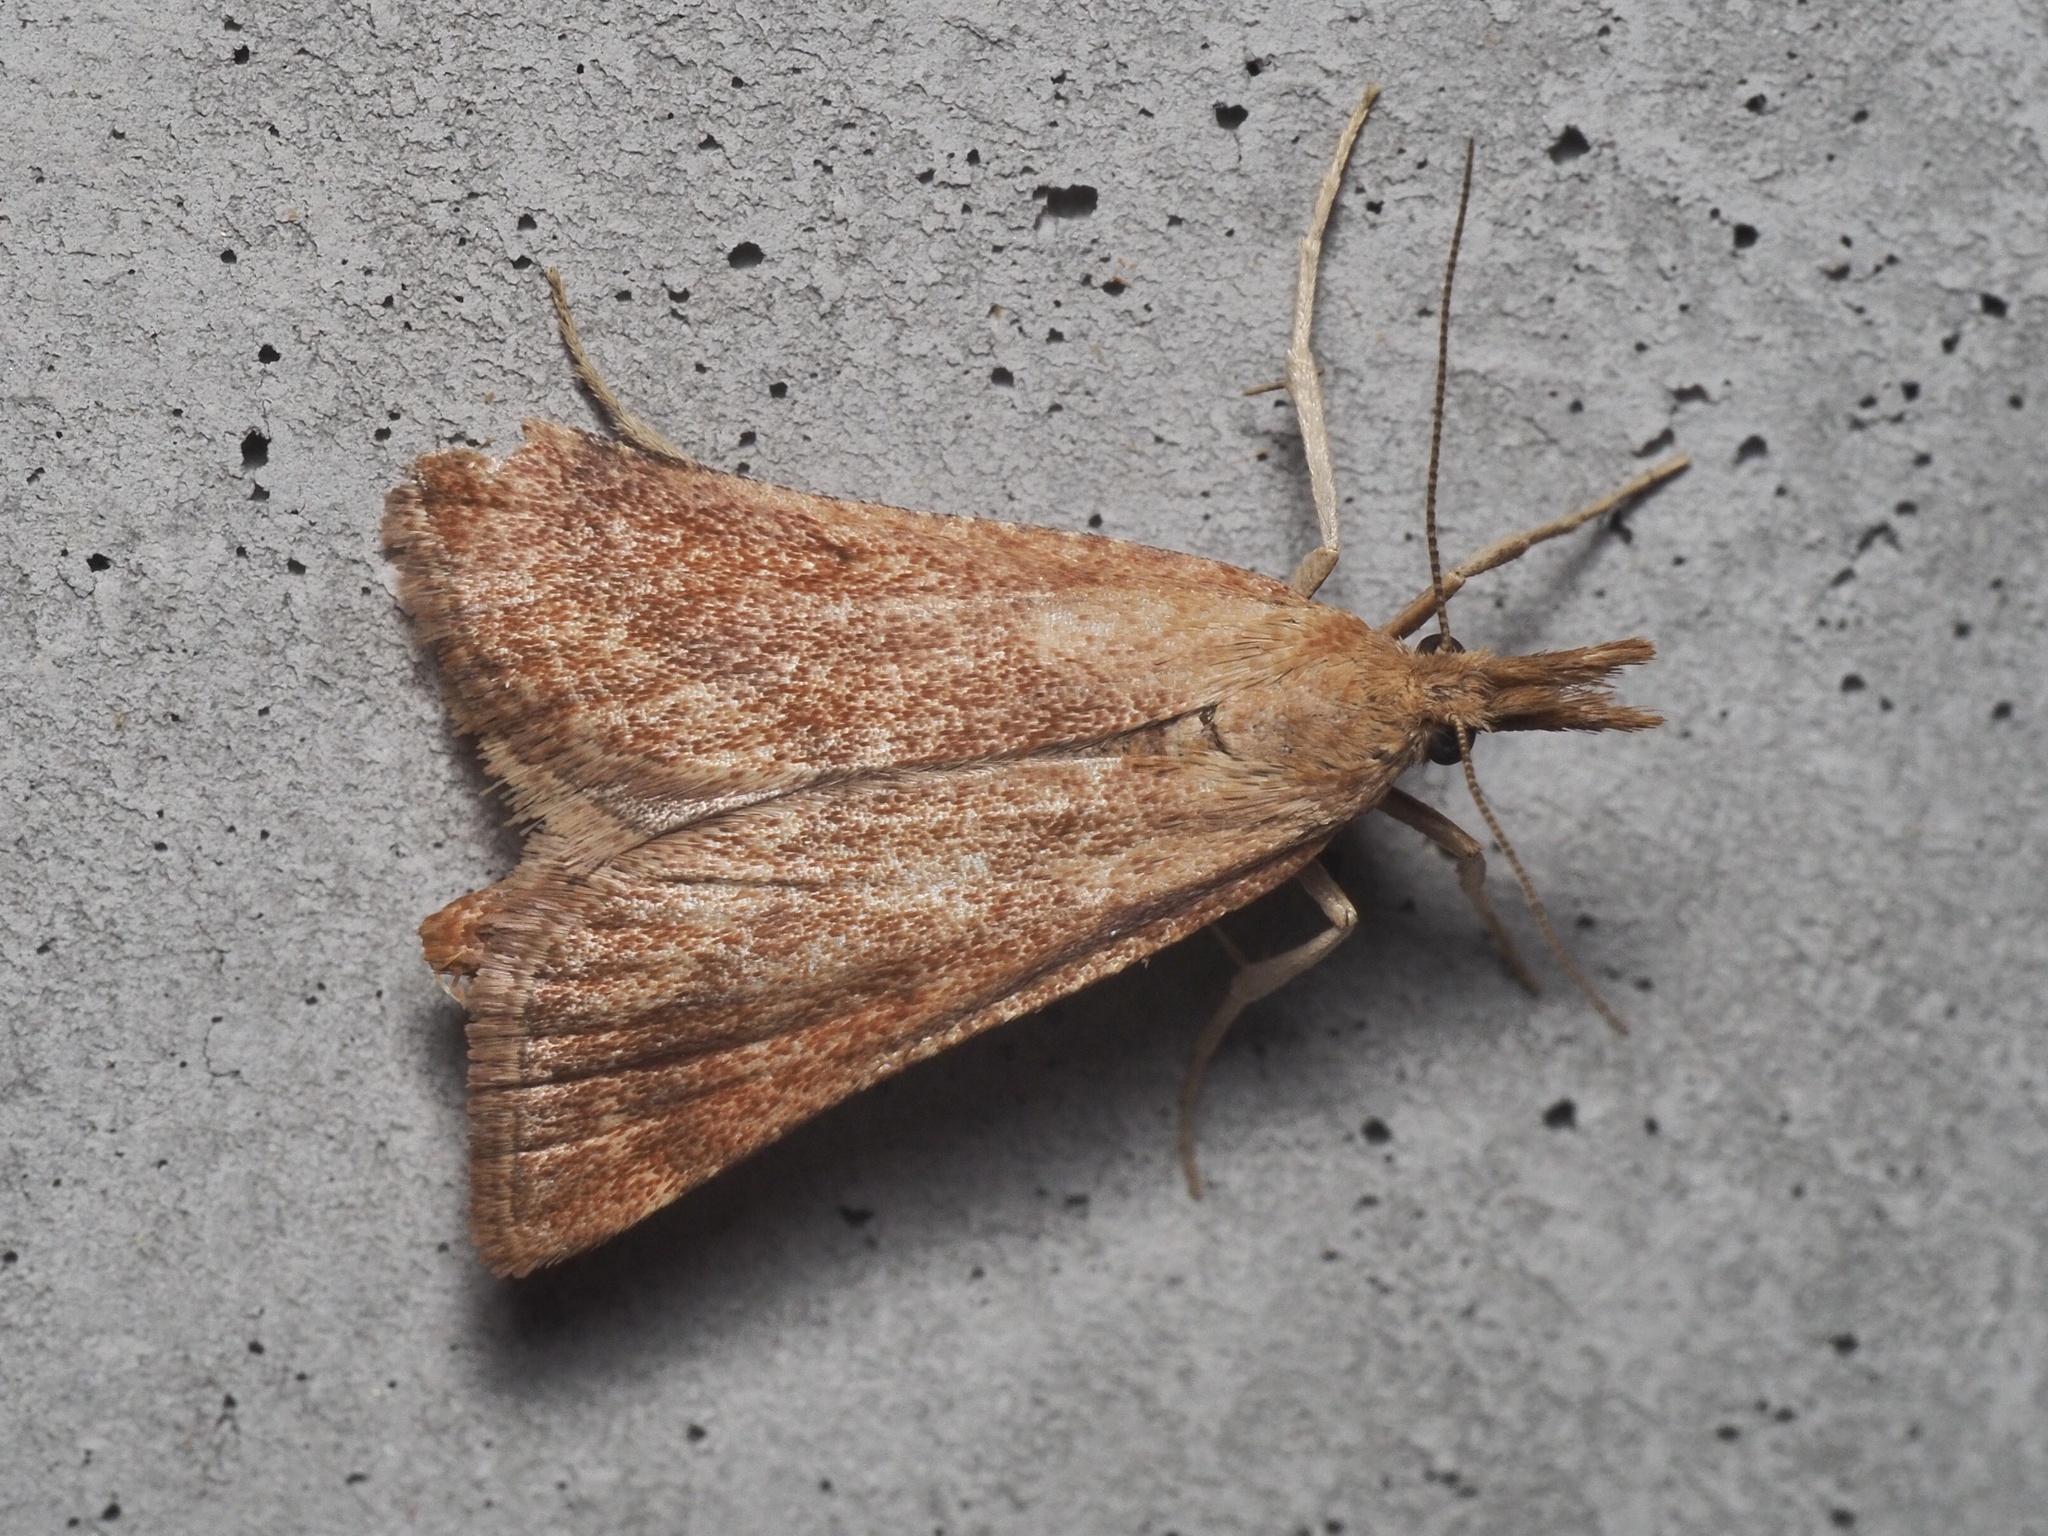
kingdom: Animalia
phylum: Arthropoda
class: Insecta
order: Lepidoptera
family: Pyralidae
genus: Synaphe
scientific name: Synaphe punctalis
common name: Long-legged tabby
